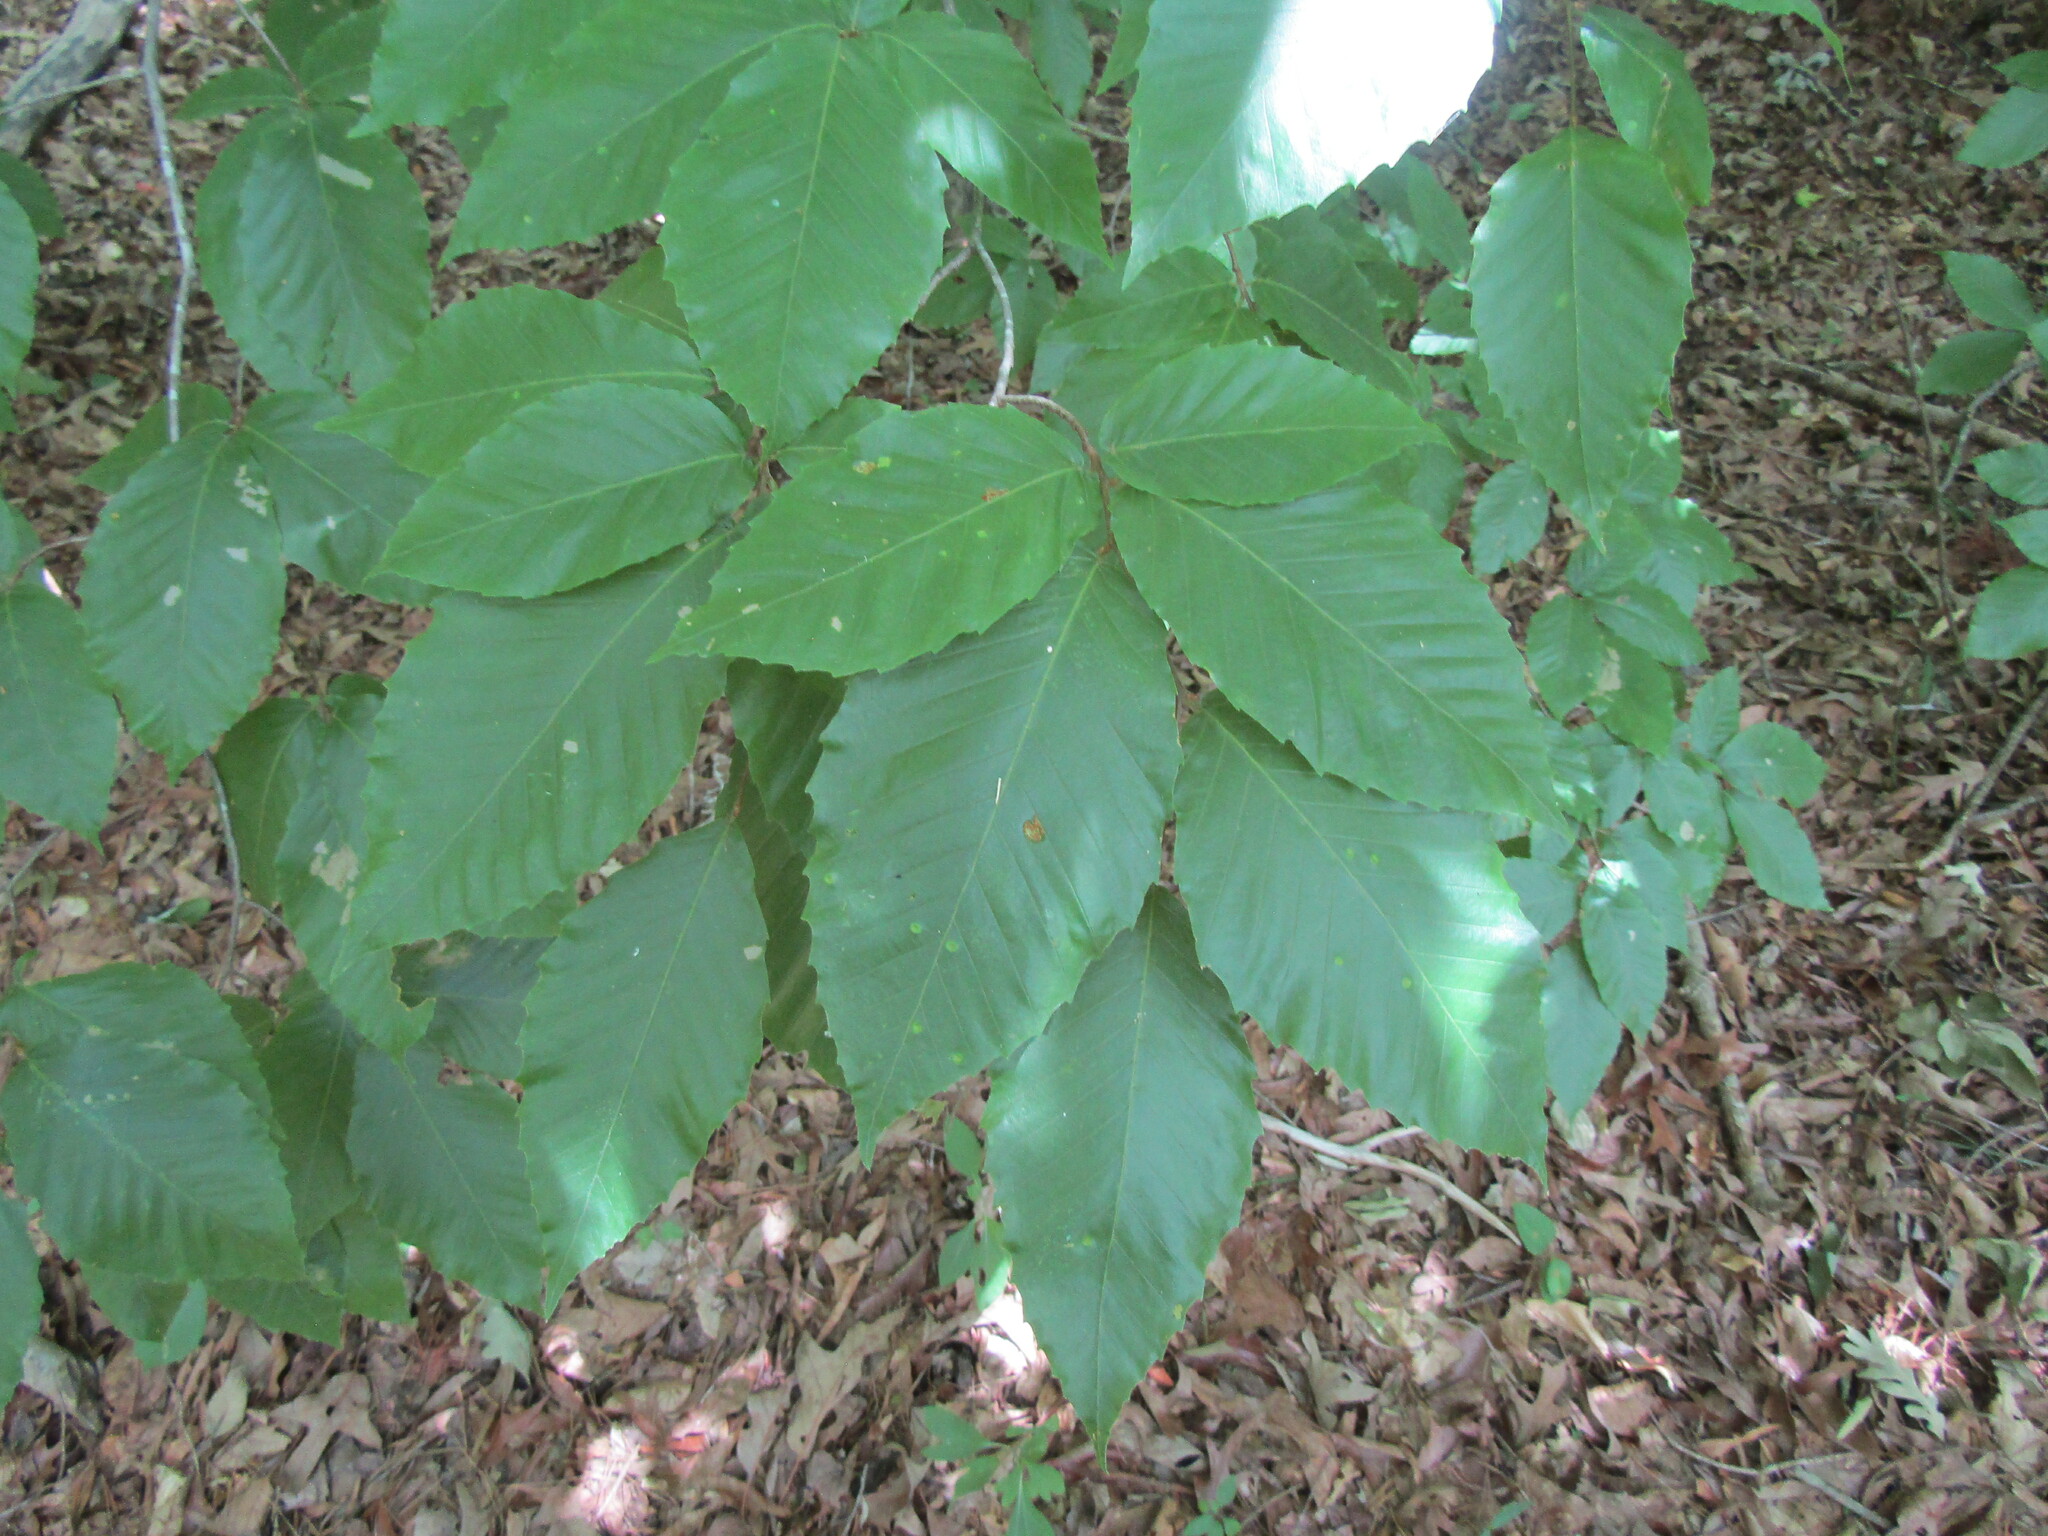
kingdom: Plantae
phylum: Tracheophyta
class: Magnoliopsida
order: Fagales
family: Fagaceae
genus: Fagus
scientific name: Fagus grandifolia
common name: American beech
